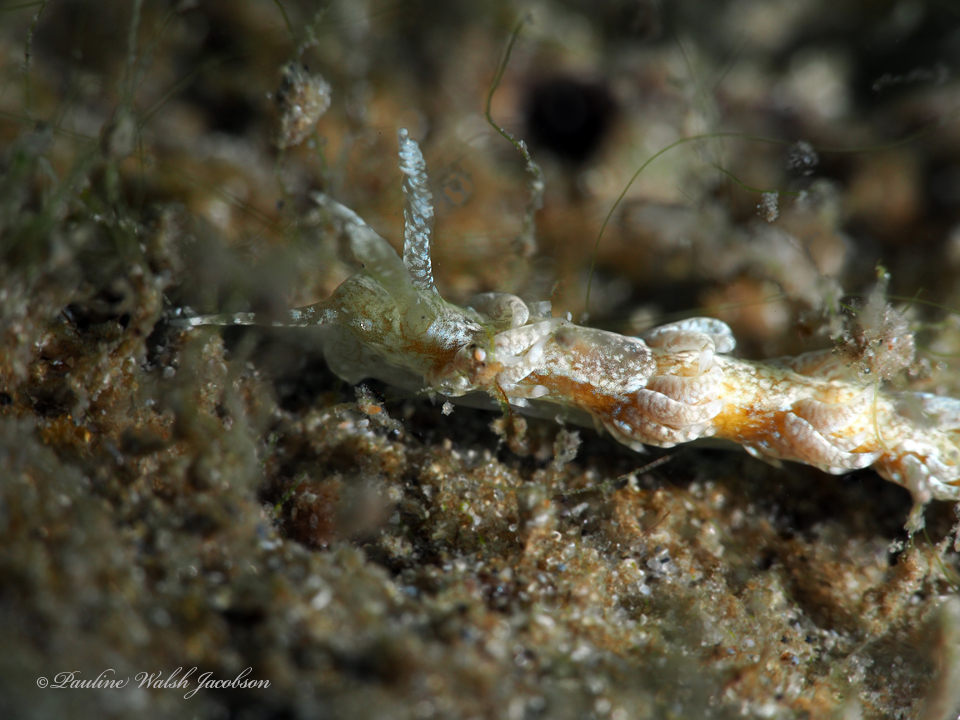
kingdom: Animalia
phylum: Mollusca
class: Gastropoda
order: Nudibranchia
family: Aeolidiidae
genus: Spurilla
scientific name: Spurilla sargassicola
